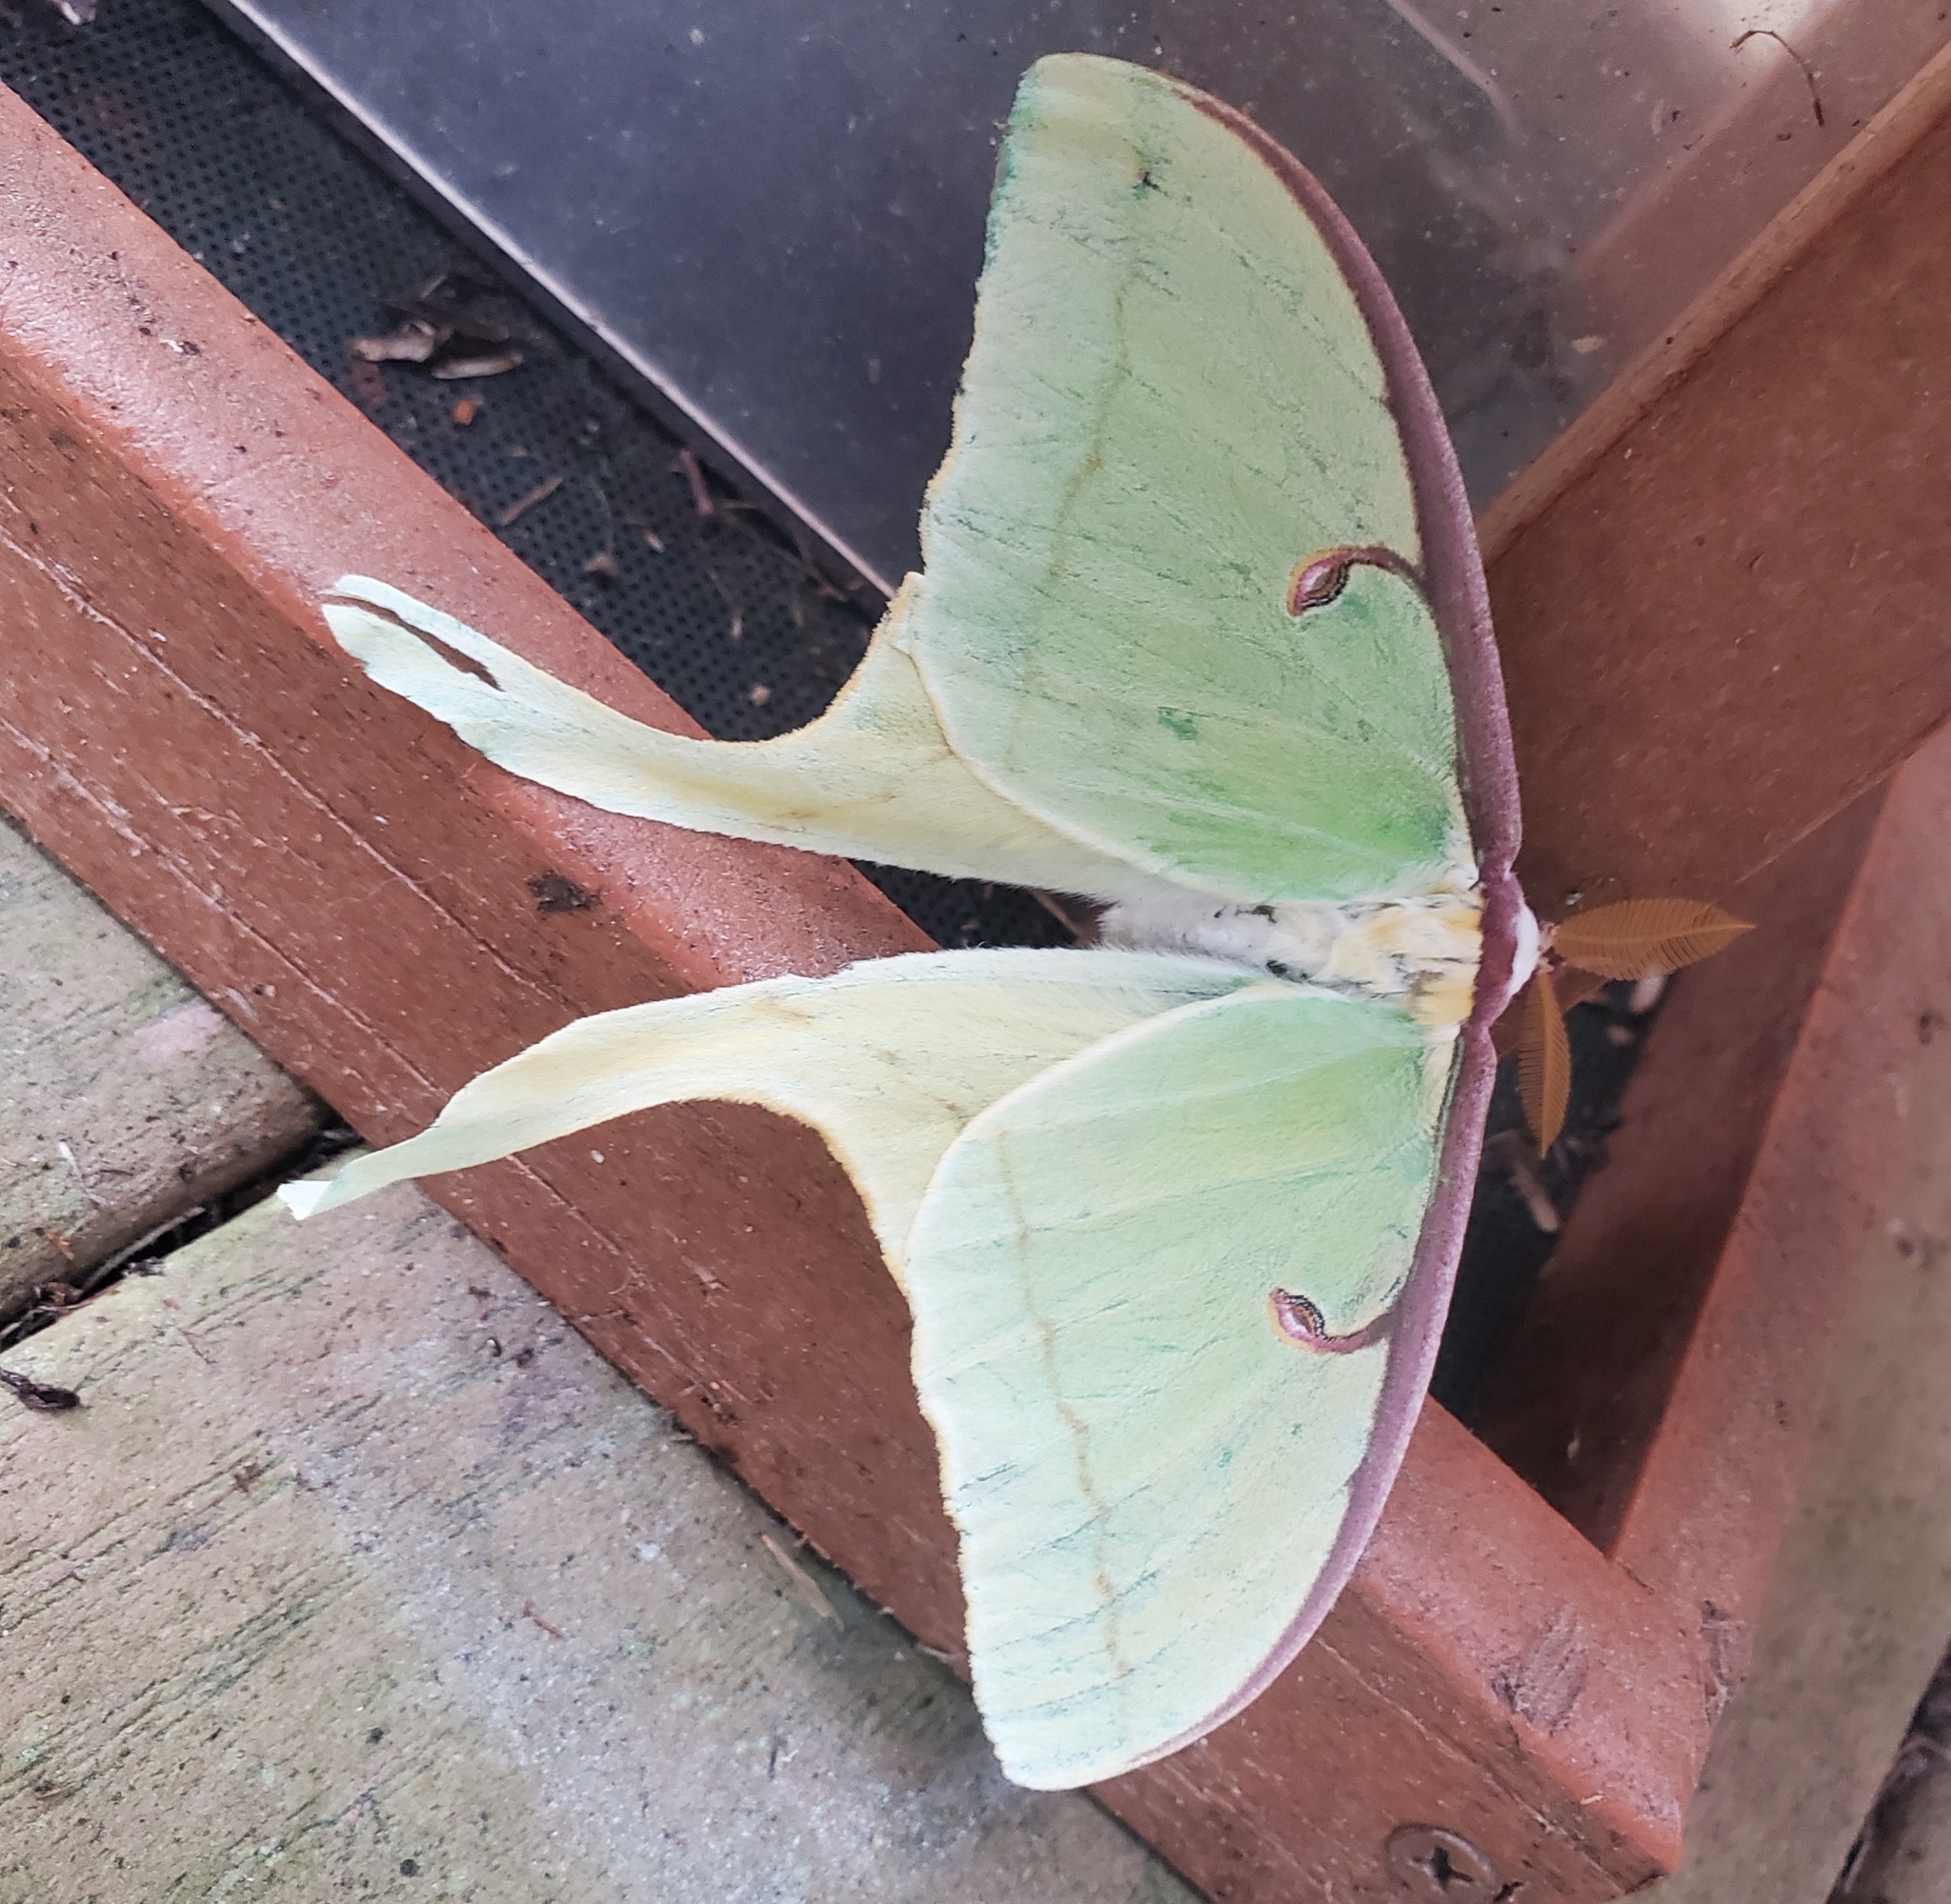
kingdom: Animalia
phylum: Arthropoda
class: Insecta
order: Lepidoptera
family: Saturniidae
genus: Actias
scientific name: Actias luna
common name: Luna moth
